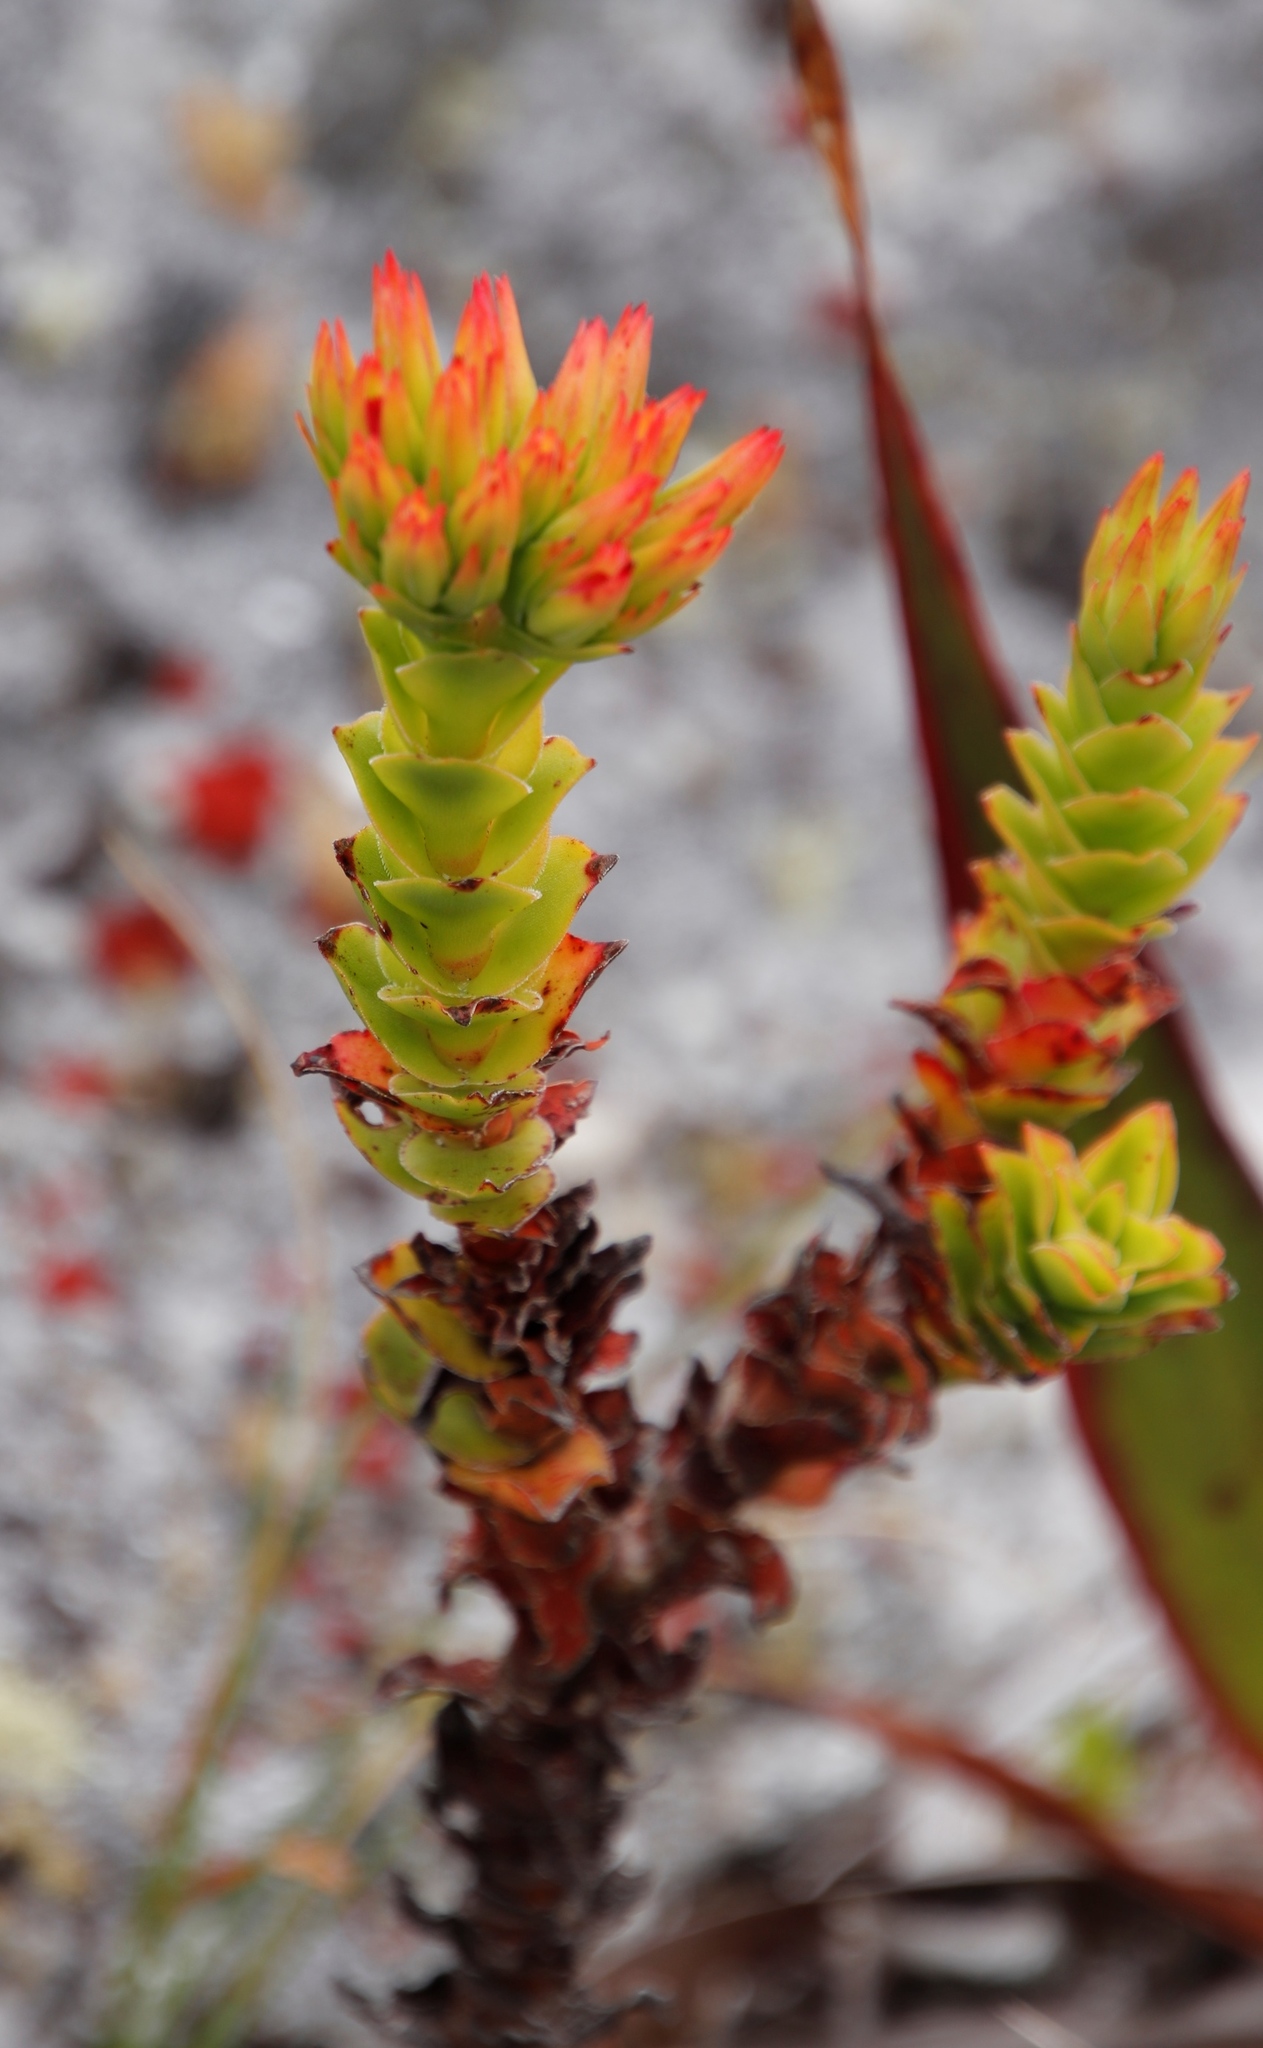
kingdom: Plantae
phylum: Tracheophyta
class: Magnoliopsida
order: Saxifragales
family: Crassulaceae
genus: Crassula
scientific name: Crassula coccinea
